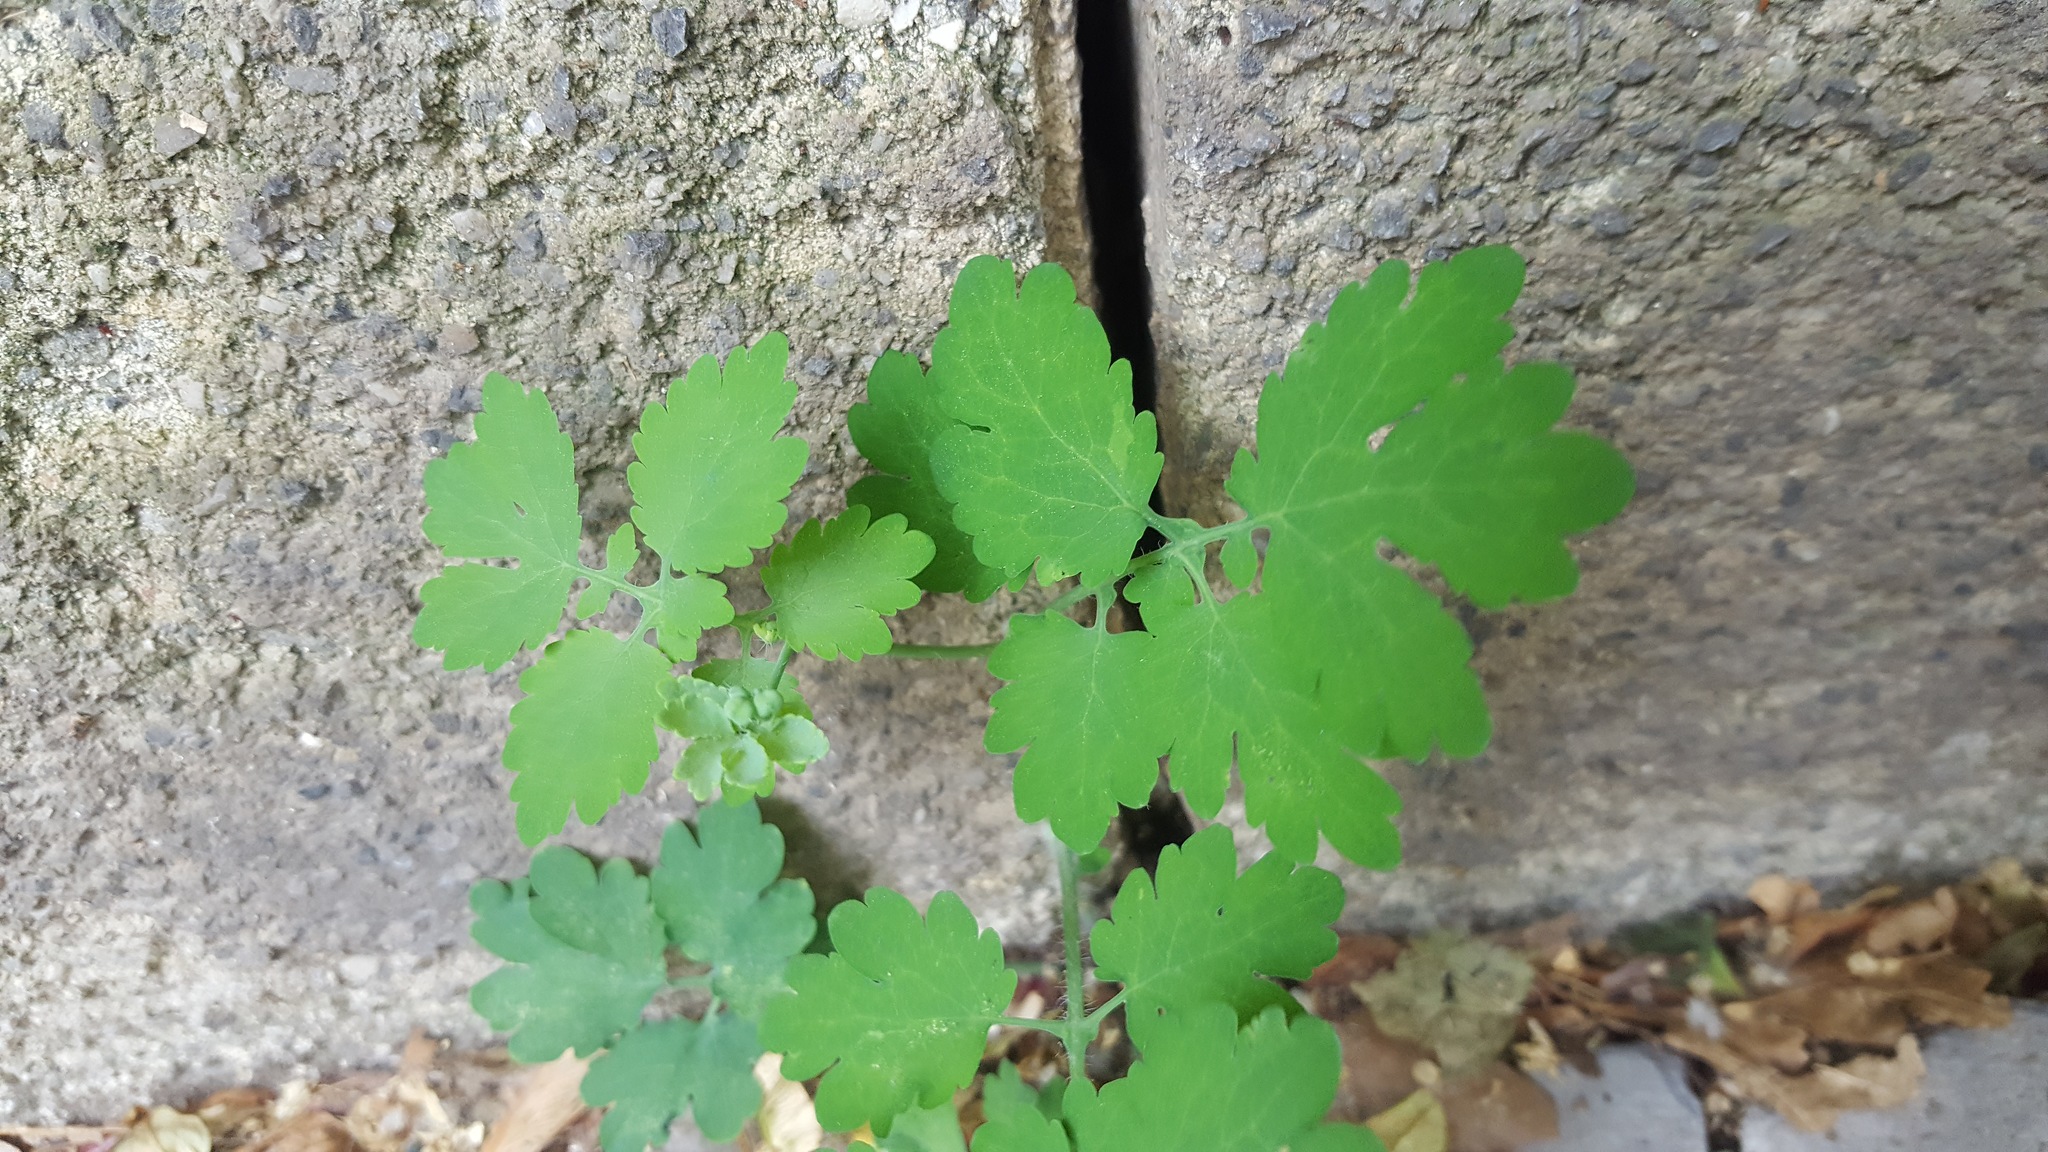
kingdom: Plantae
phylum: Tracheophyta
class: Magnoliopsida
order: Ranunculales
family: Papaveraceae
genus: Chelidonium
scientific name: Chelidonium majus
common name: Greater celandine
